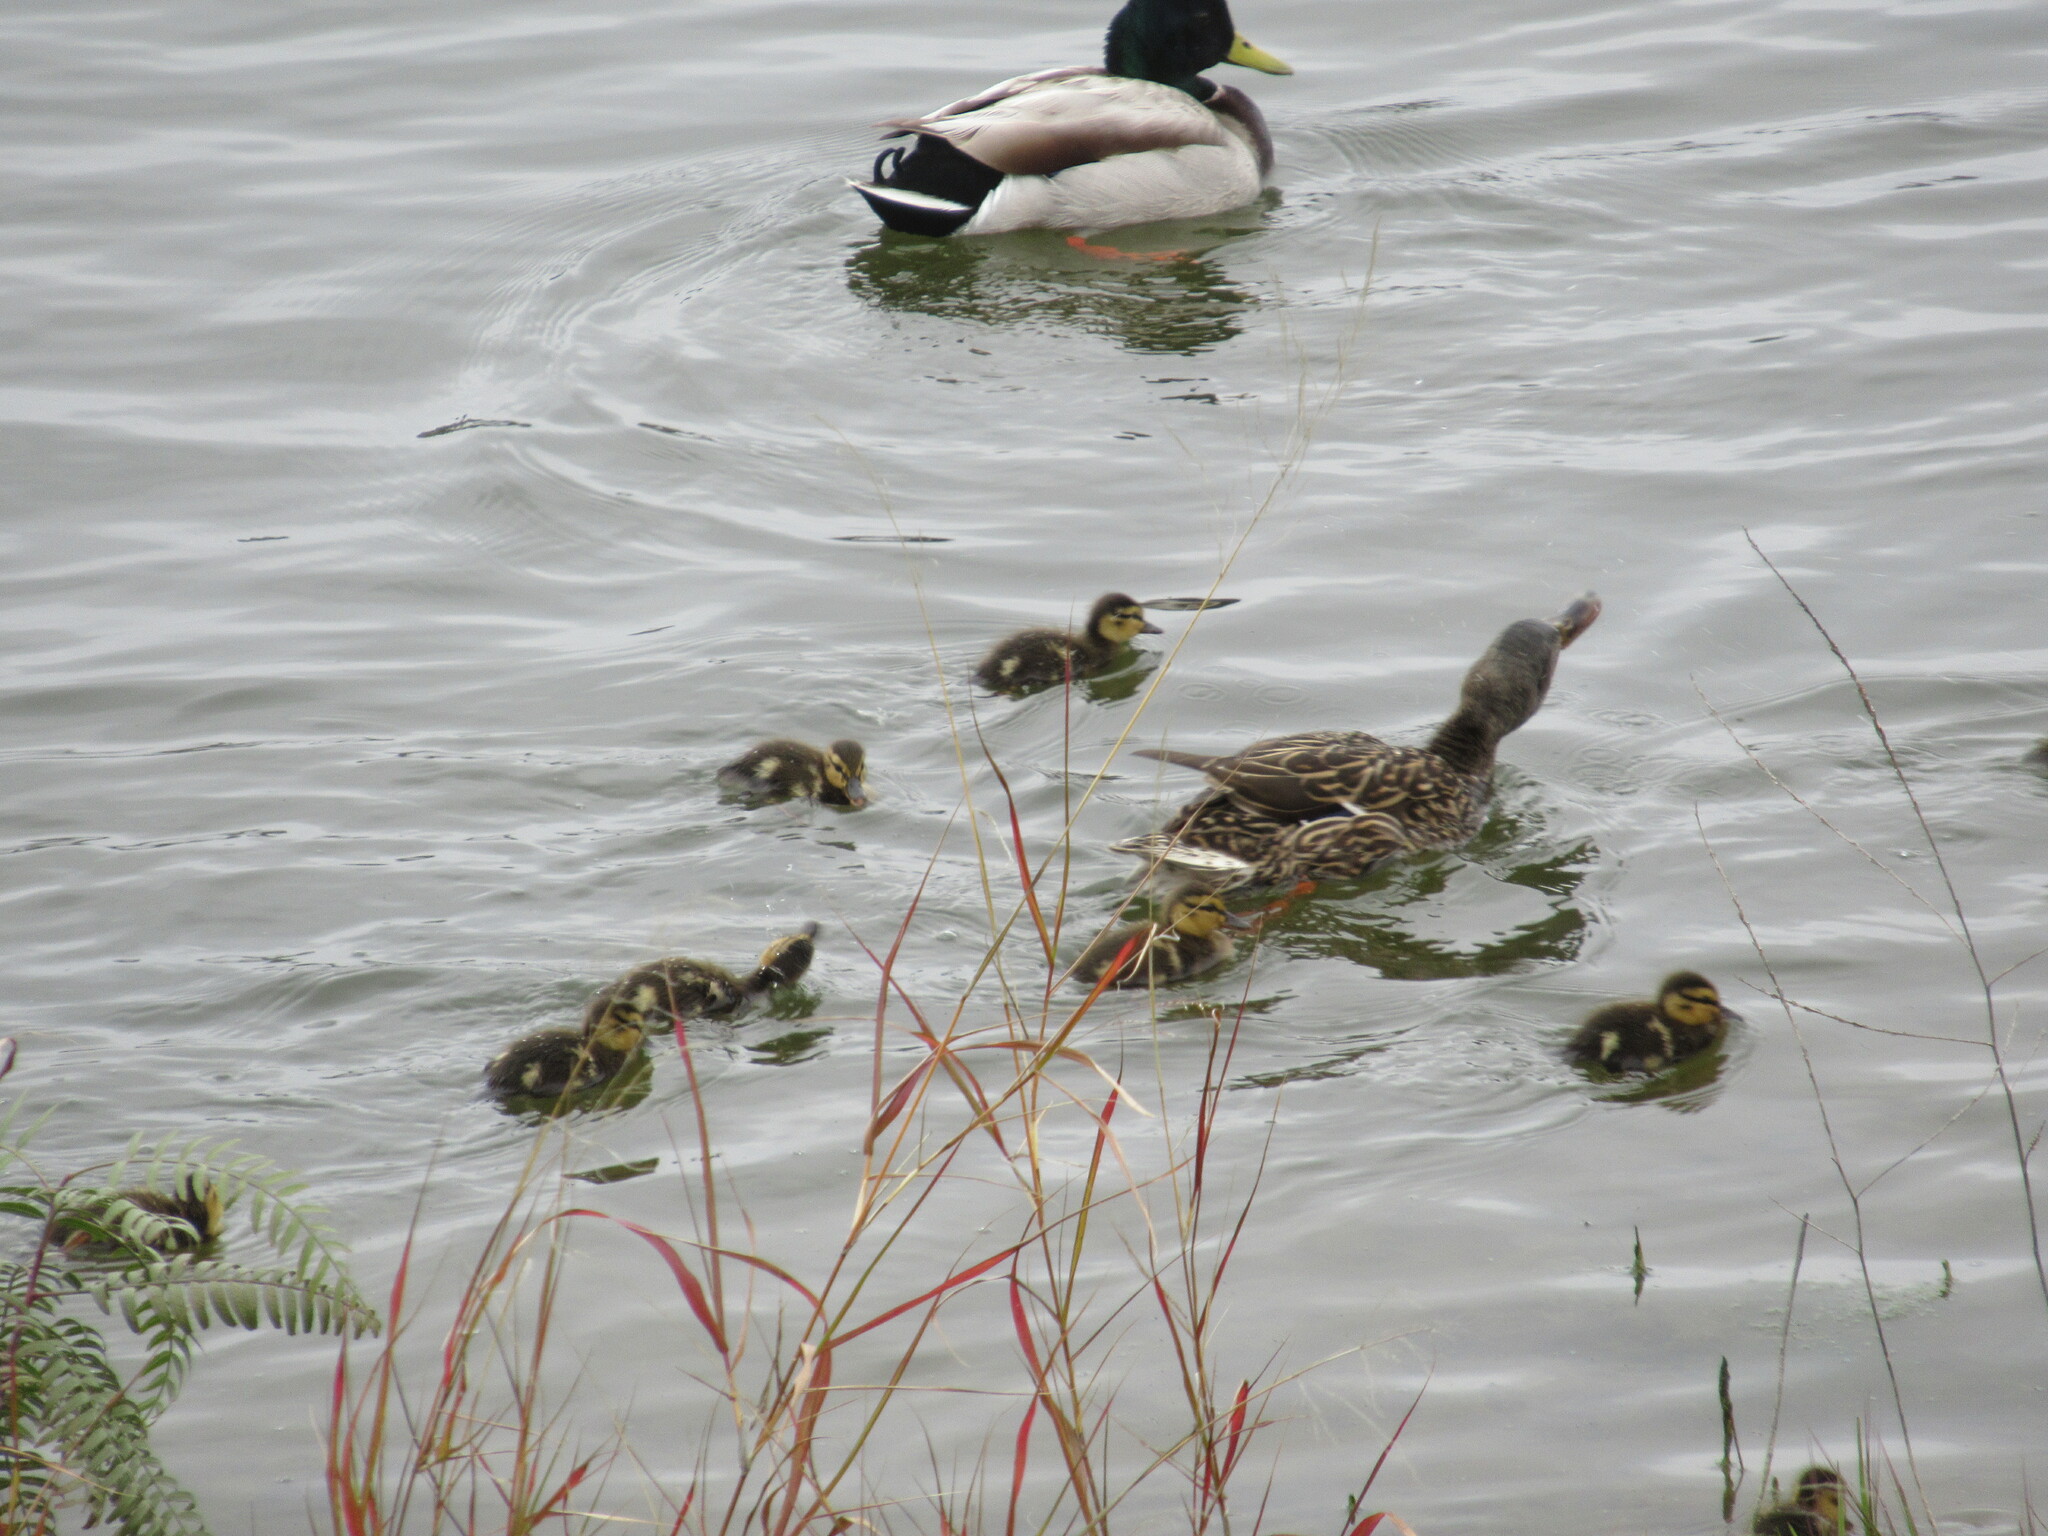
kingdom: Animalia
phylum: Chordata
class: Aves
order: Anseriformes
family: Anatidae
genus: Anas
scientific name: Anas platyrhynchos
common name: Mallard
